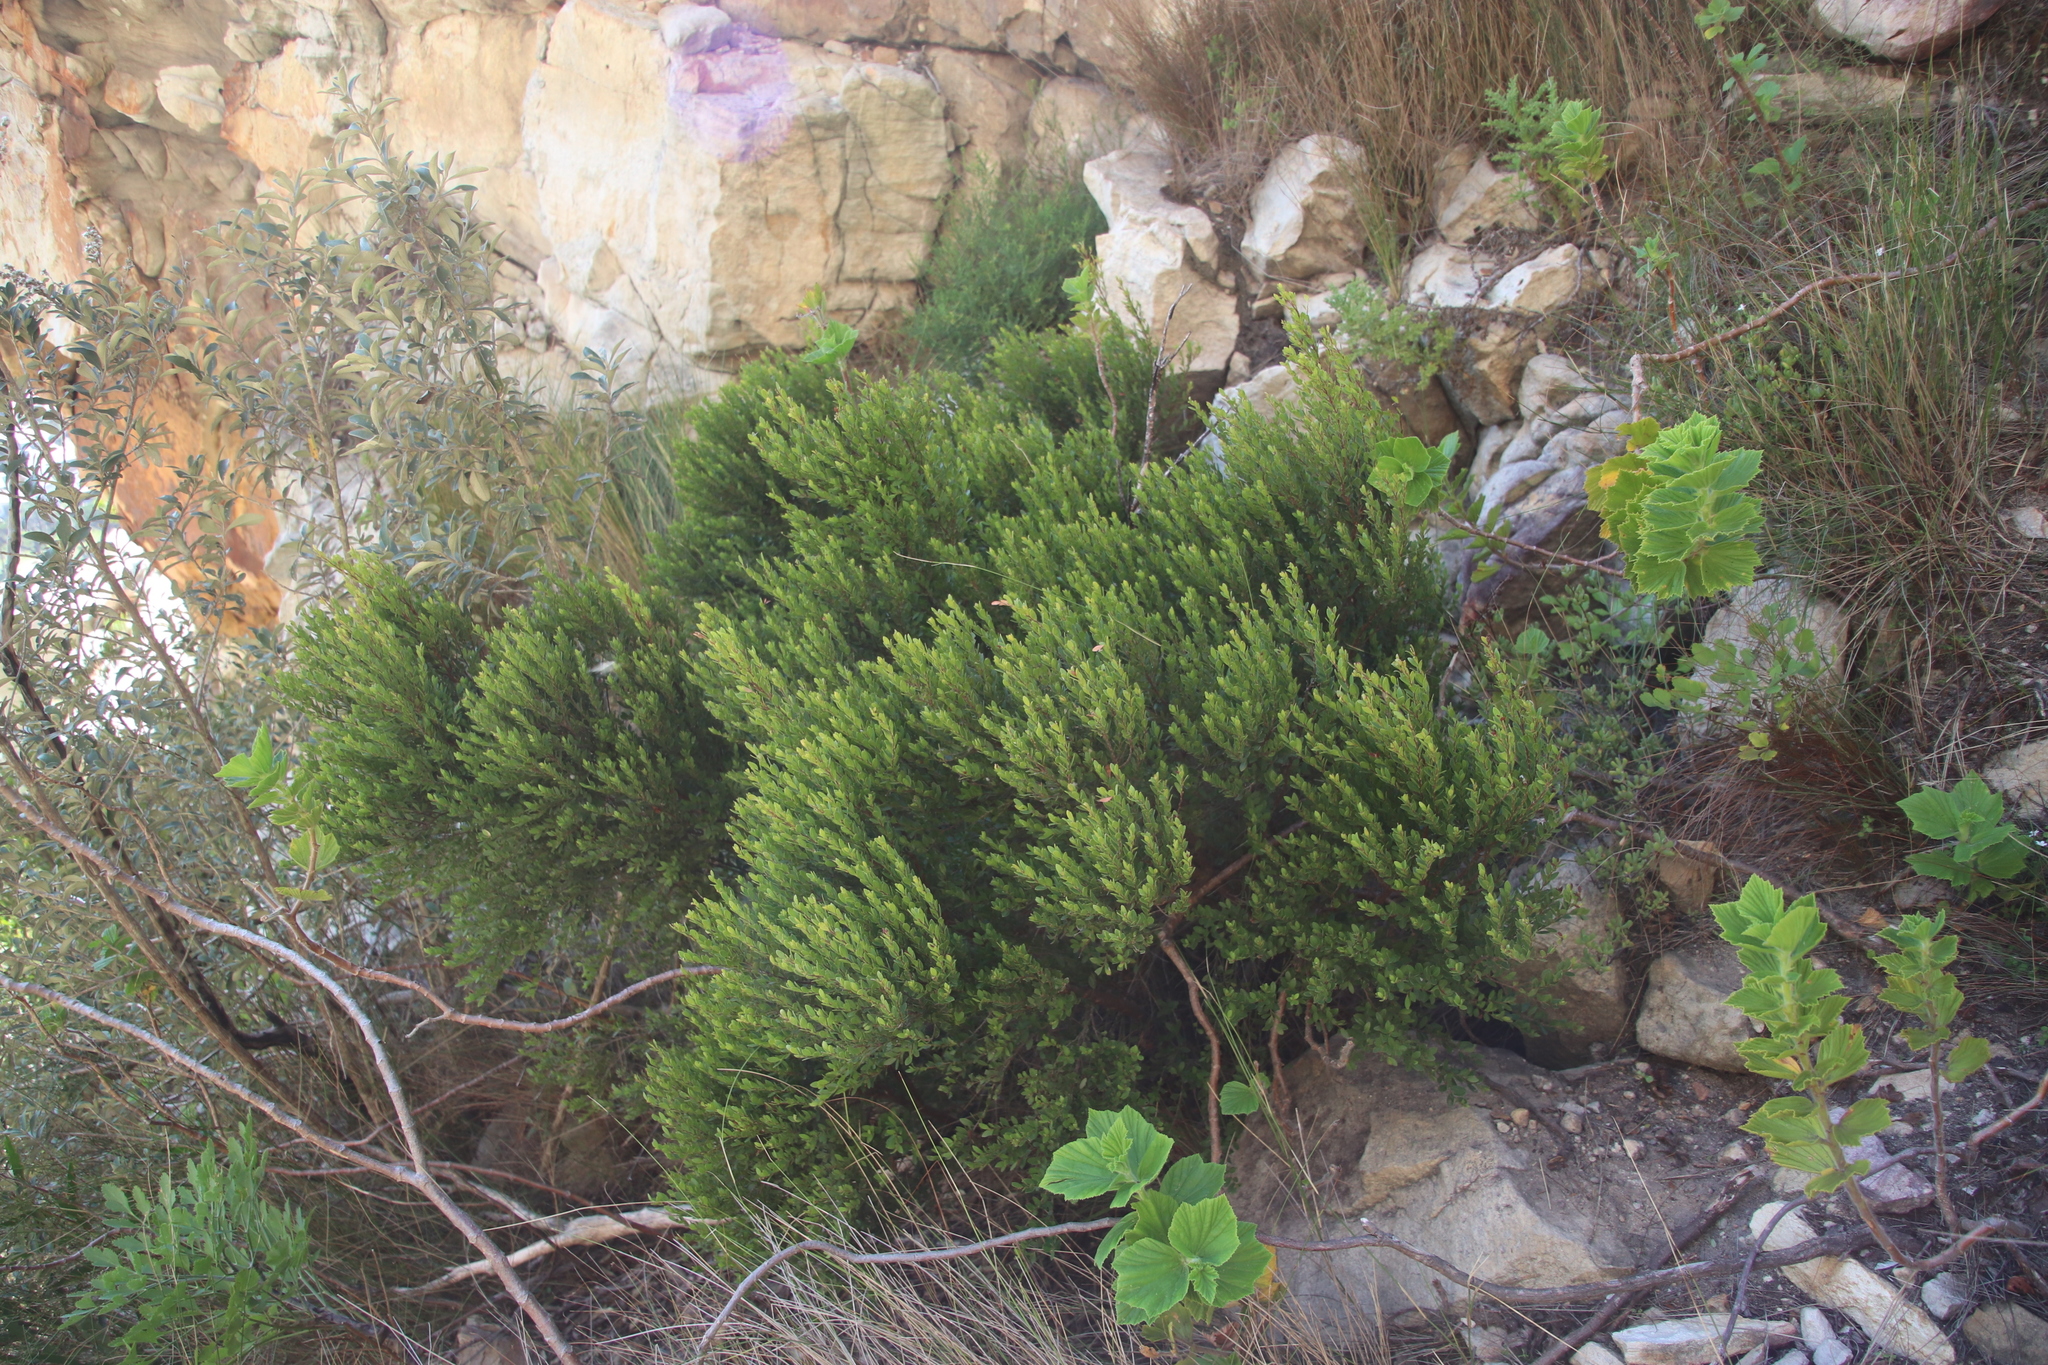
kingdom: Plantae
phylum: Tracheophyta
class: Magnoliopsida
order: Ericales
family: Ebenaceae
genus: Diospyros
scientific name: Diospyros glabra
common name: Fynbos star apple
